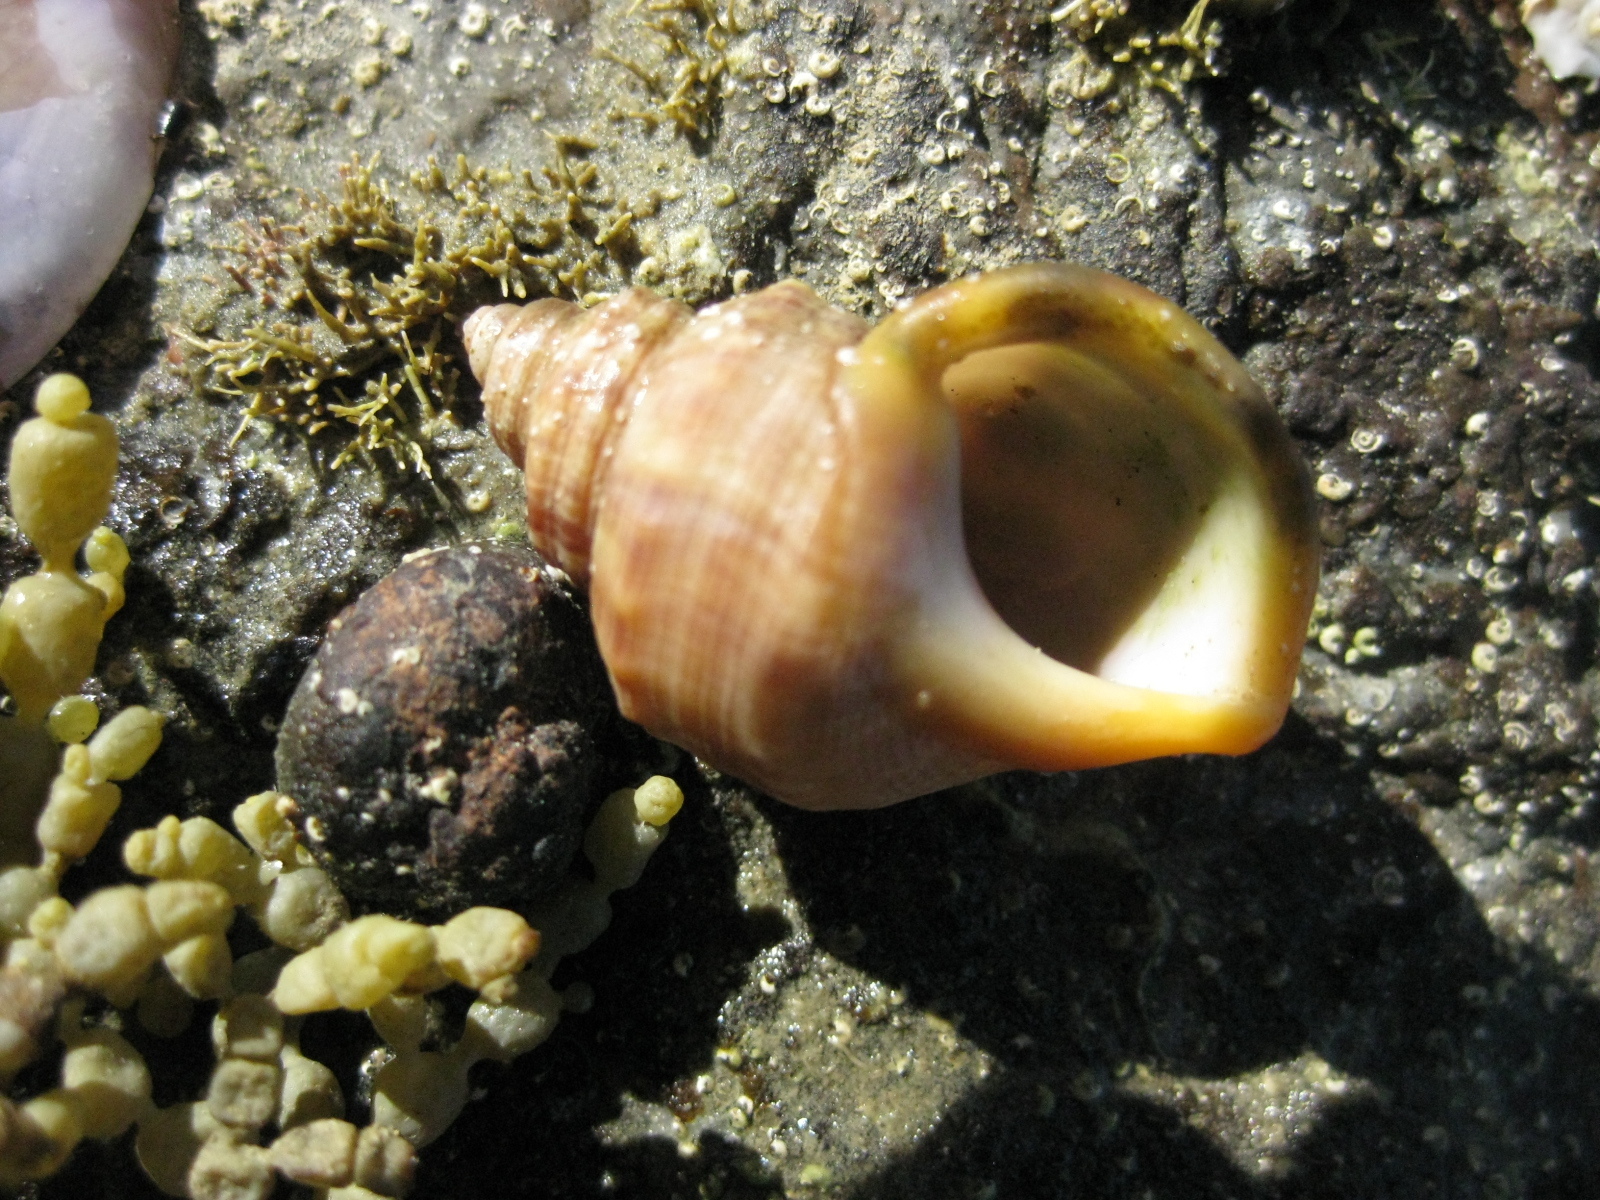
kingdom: Animalia
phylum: Mollusca
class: Gastropoda
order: Littorinimorpha
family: Struthiolariidae
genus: Pelicaria
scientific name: Pelicaria vermis
